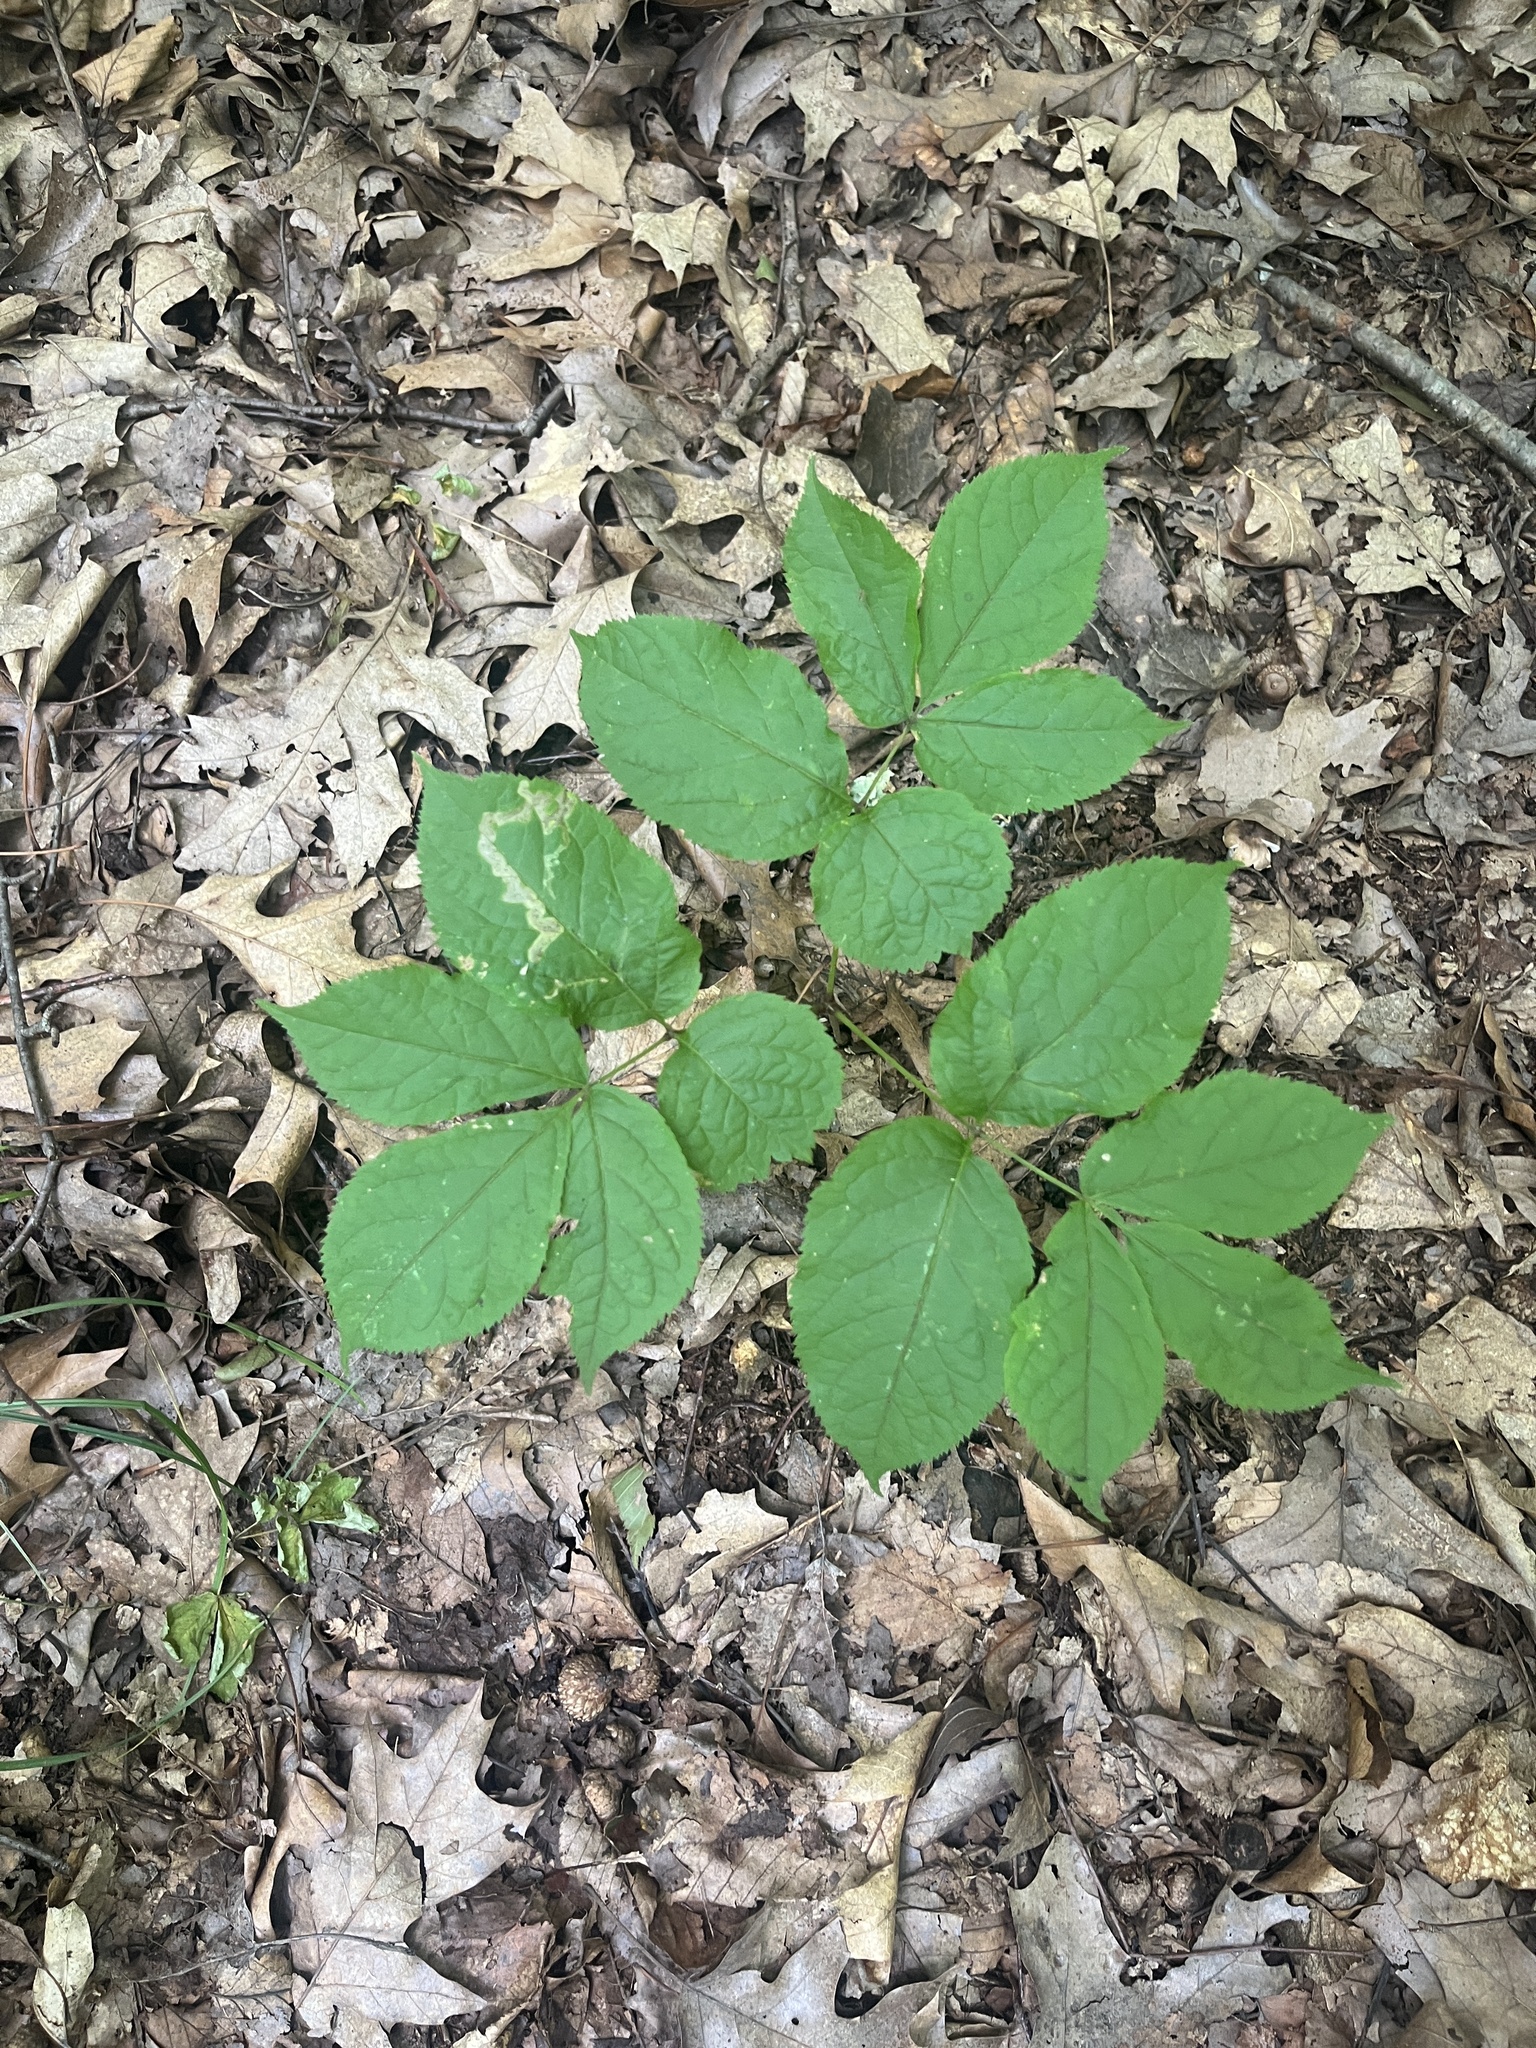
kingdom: Plantae
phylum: Tracheophyta
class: Magnoliopsida
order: Apiales
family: Araliaceae
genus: Aralia
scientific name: Aralia nudicaulis
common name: Wild sarsaparilla
